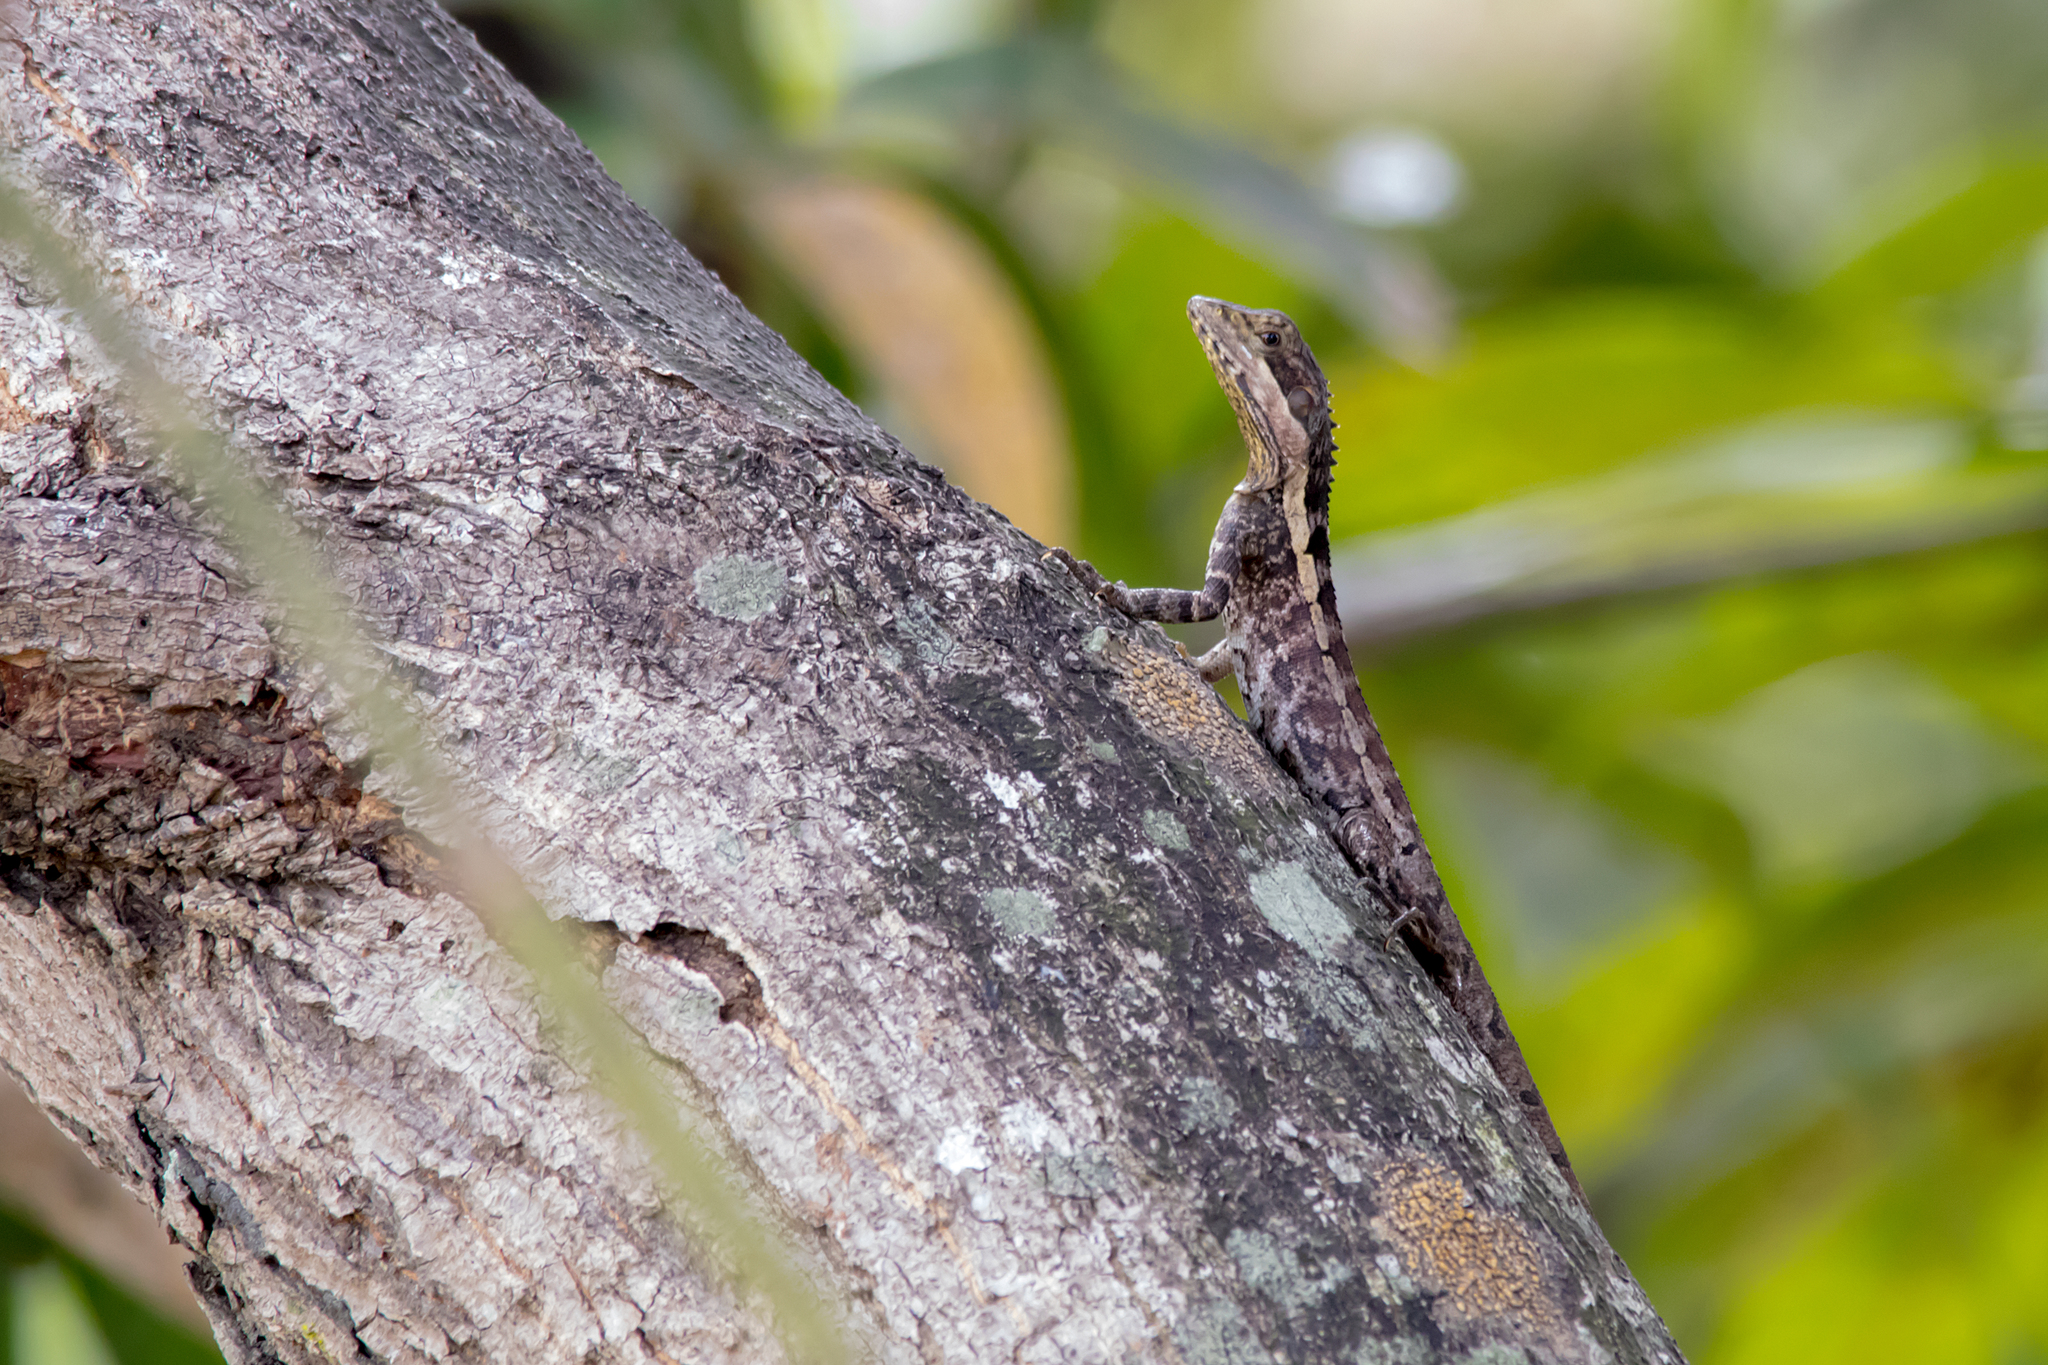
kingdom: Animalia
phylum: Chordata
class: Squamata
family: Agamidae
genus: Tropicagama
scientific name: Tropicagama temporalis
